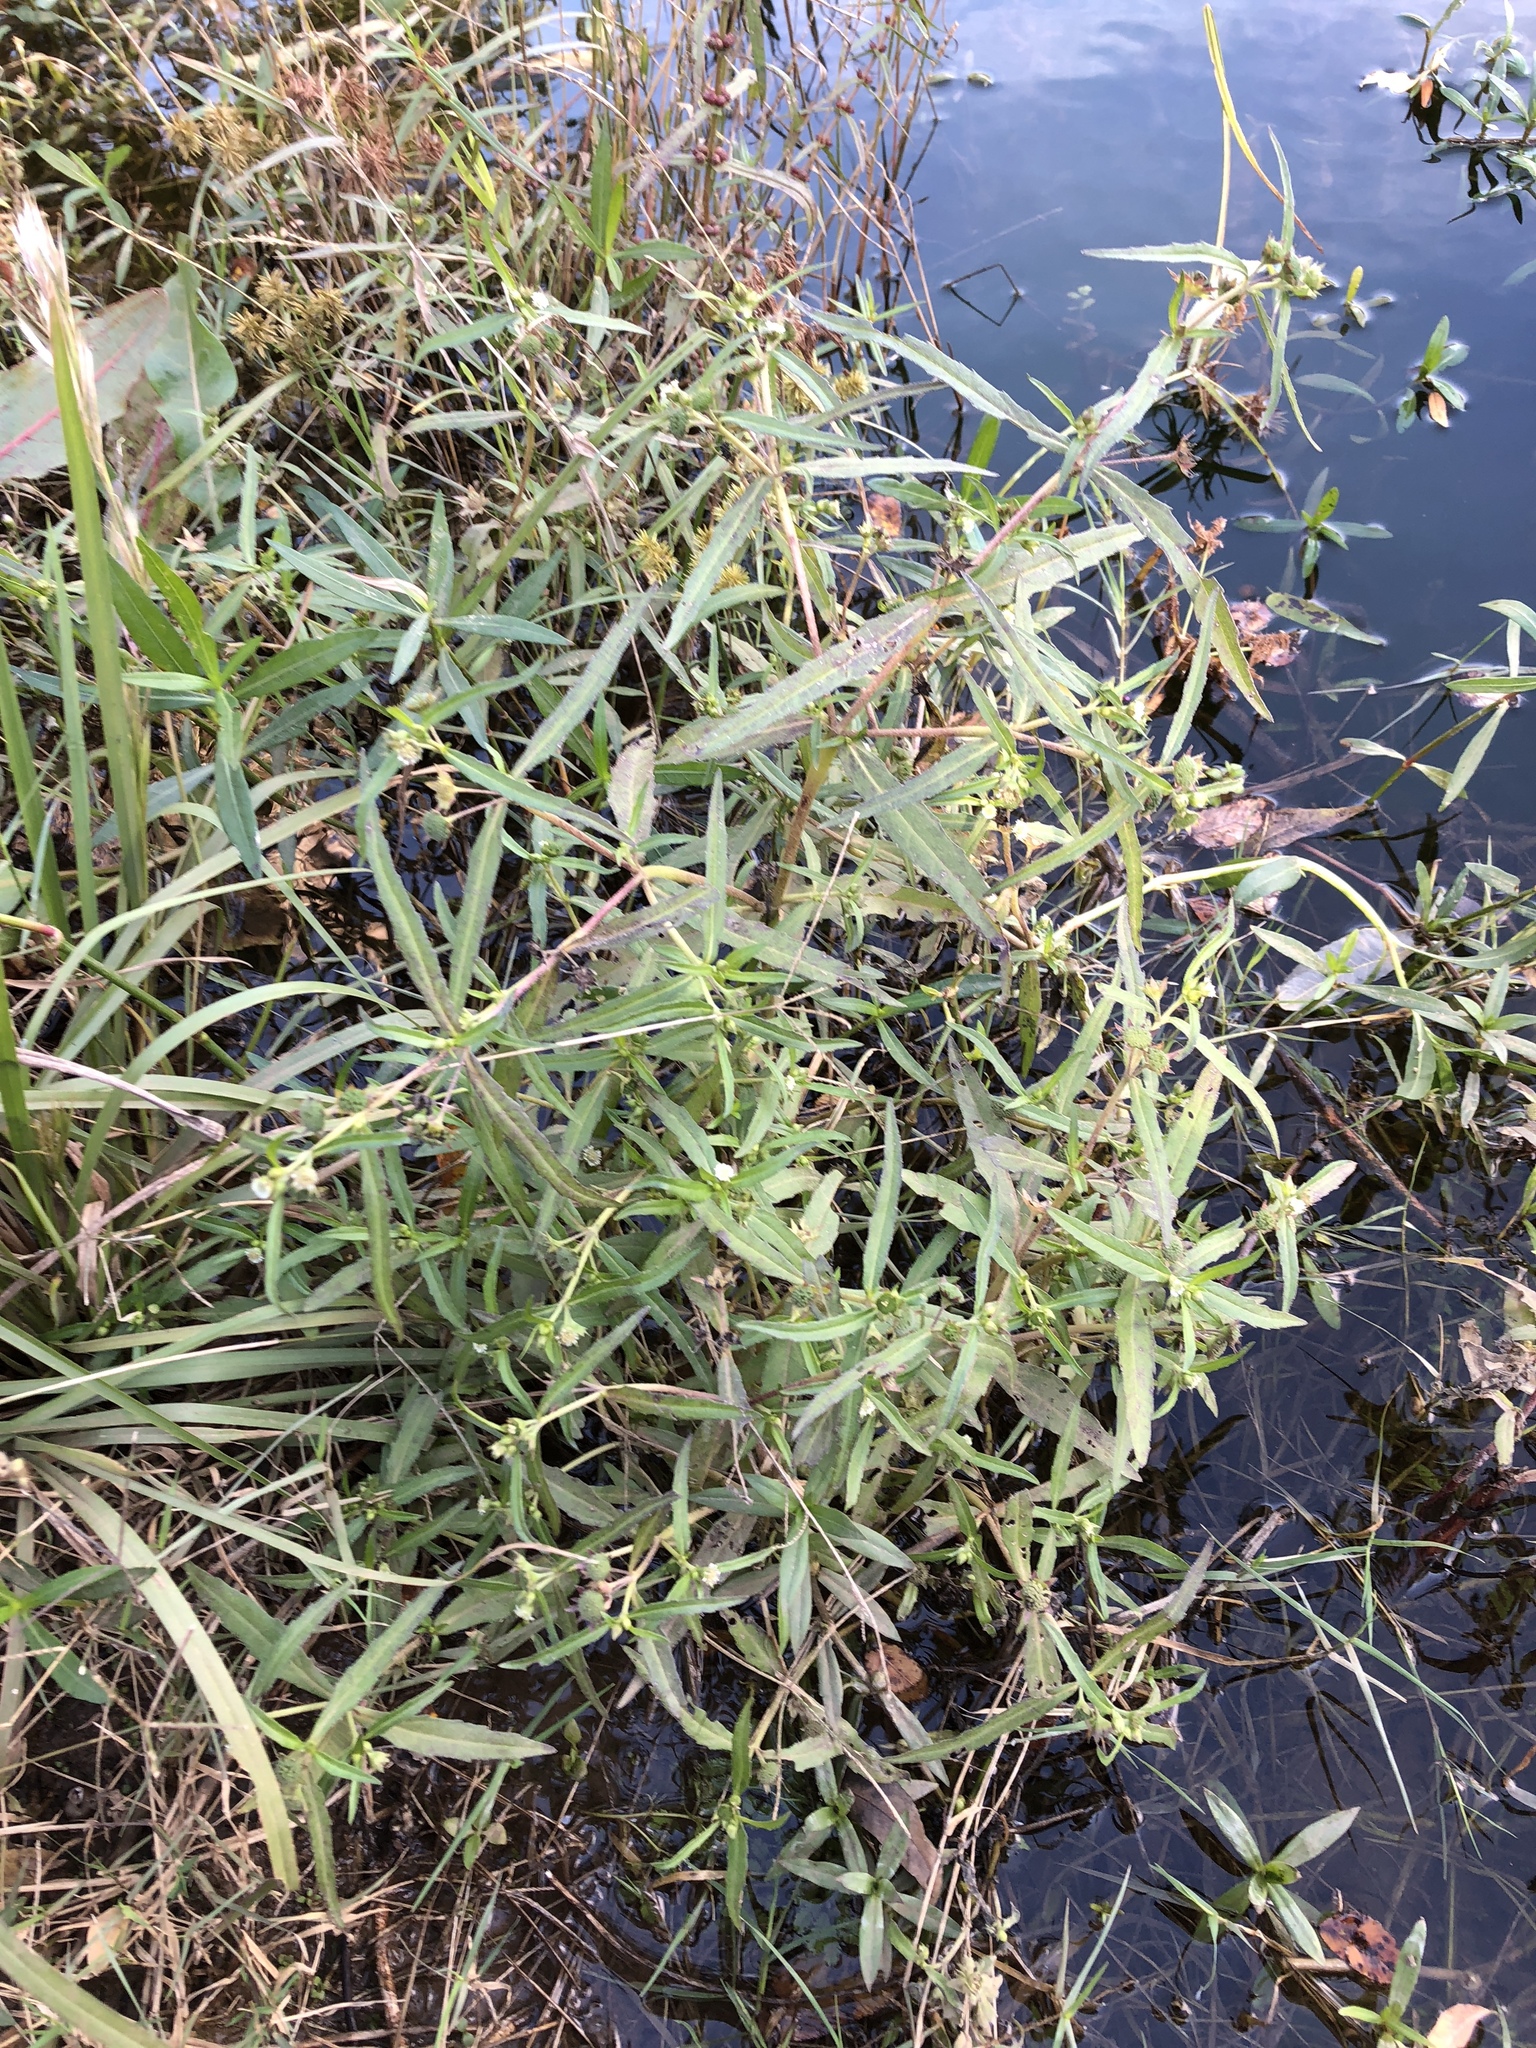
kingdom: Plantae
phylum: Tracheophyta
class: Magnoliopsida
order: Asterales
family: Asteraceae
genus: Eclipta
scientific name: Eclipta prostrata
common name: False daisy
